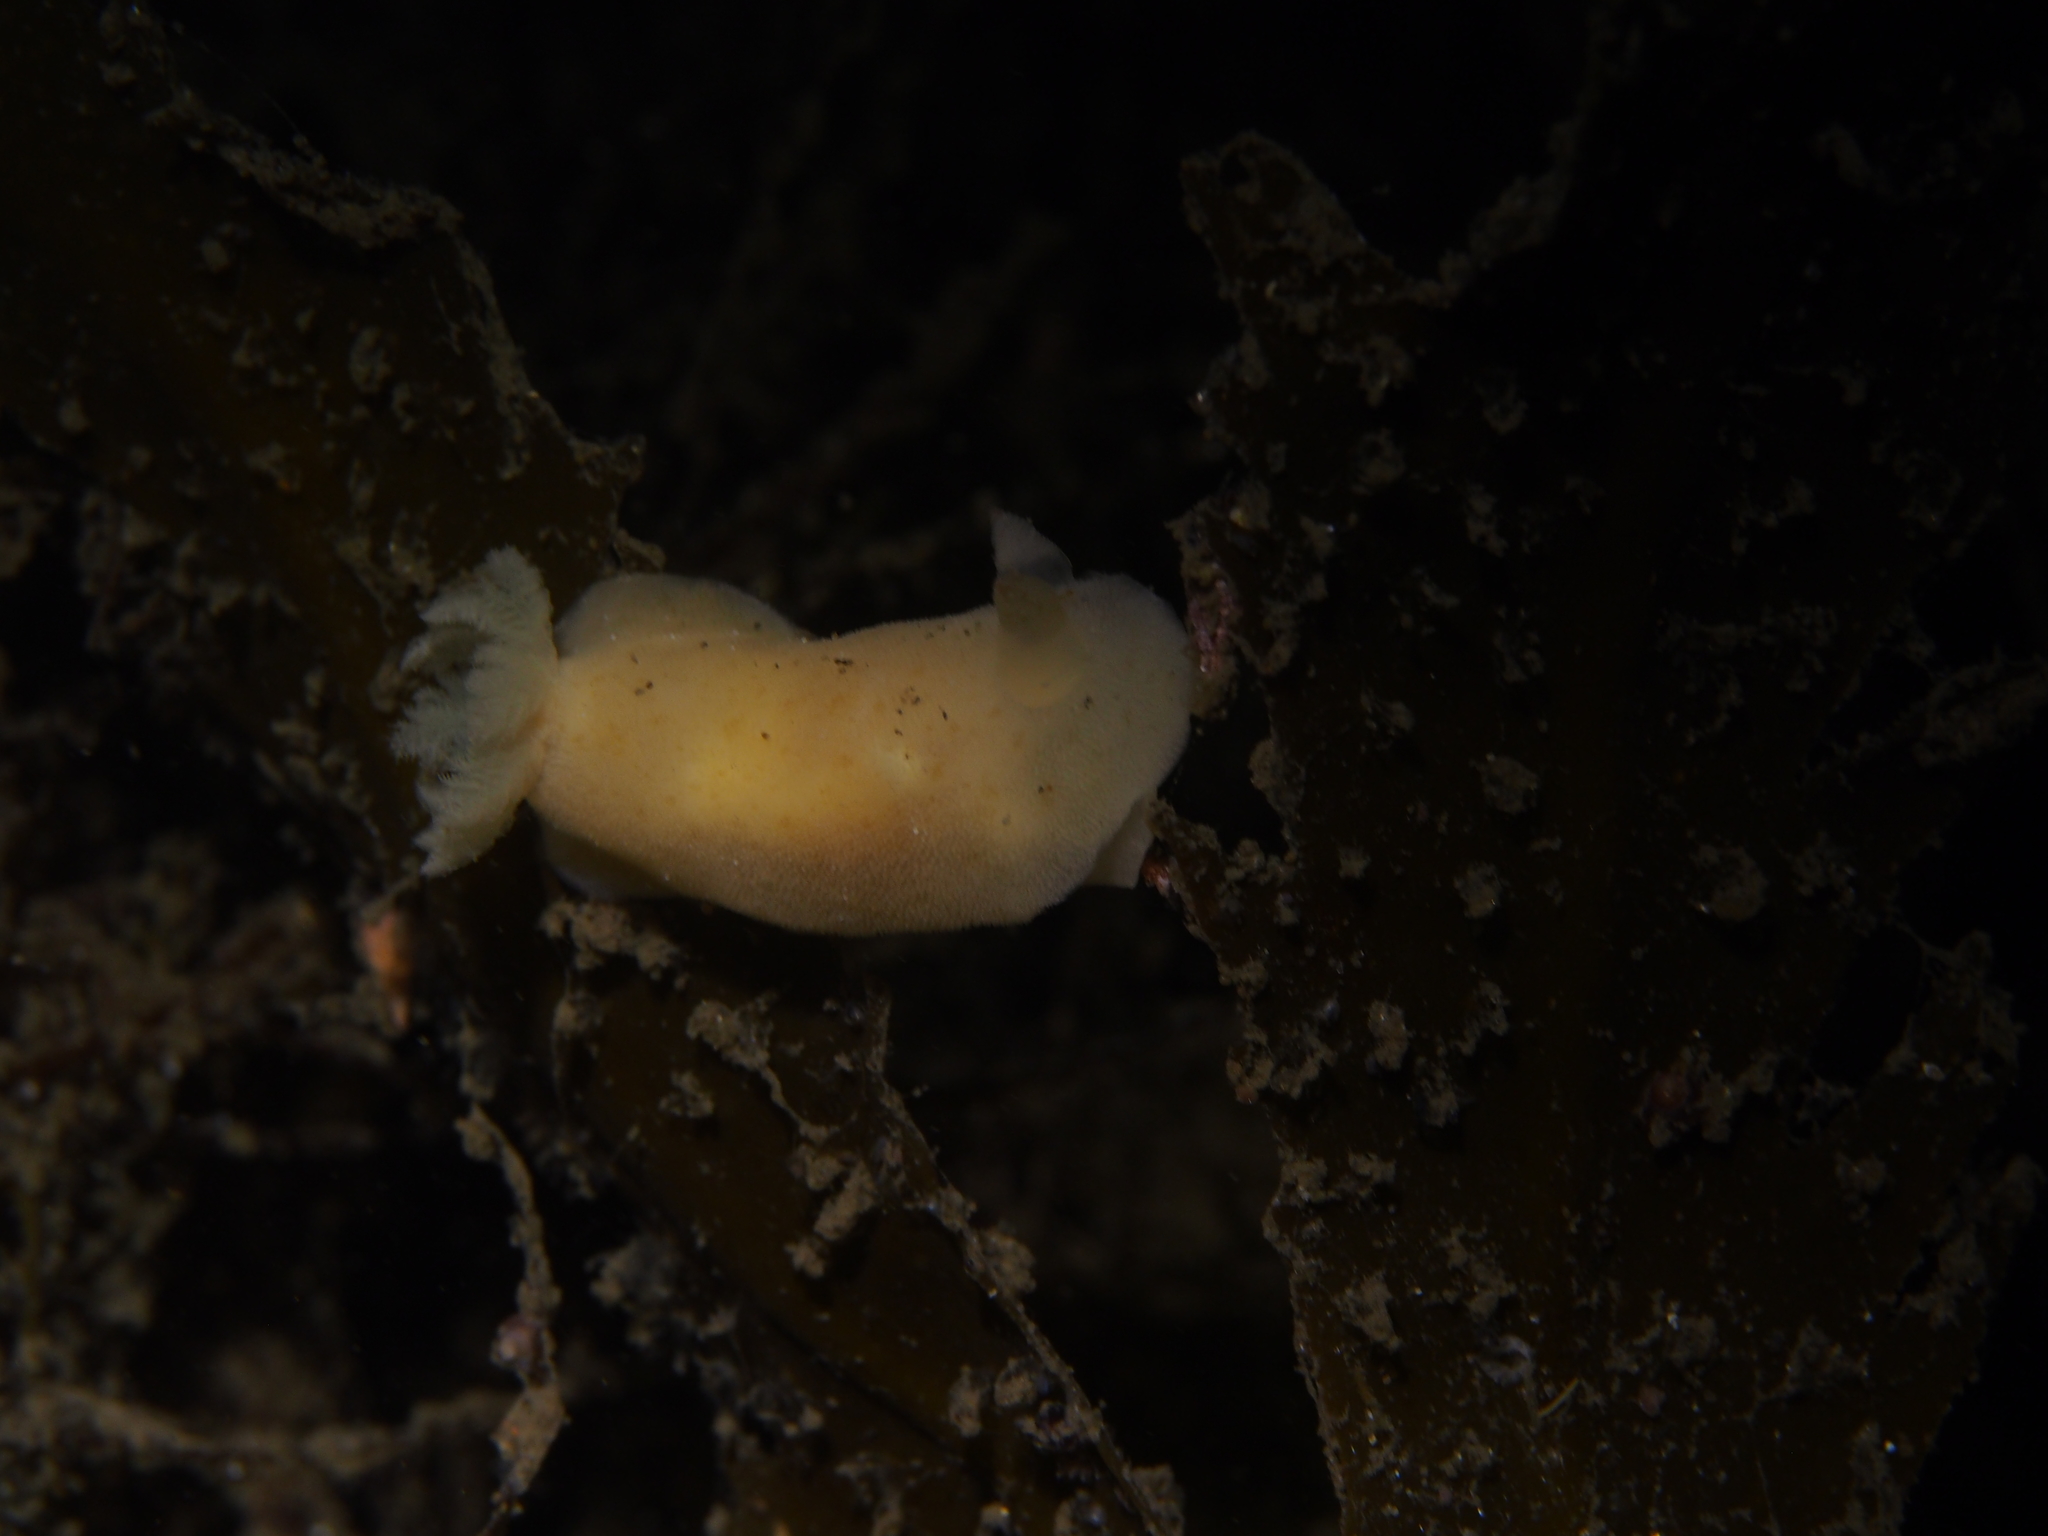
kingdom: Animalia
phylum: Mollusca
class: Gastropoda
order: Nudibranchia
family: Discodorididae
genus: Jorunna
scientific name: Jorunna tomentosa
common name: Grey sea slug
